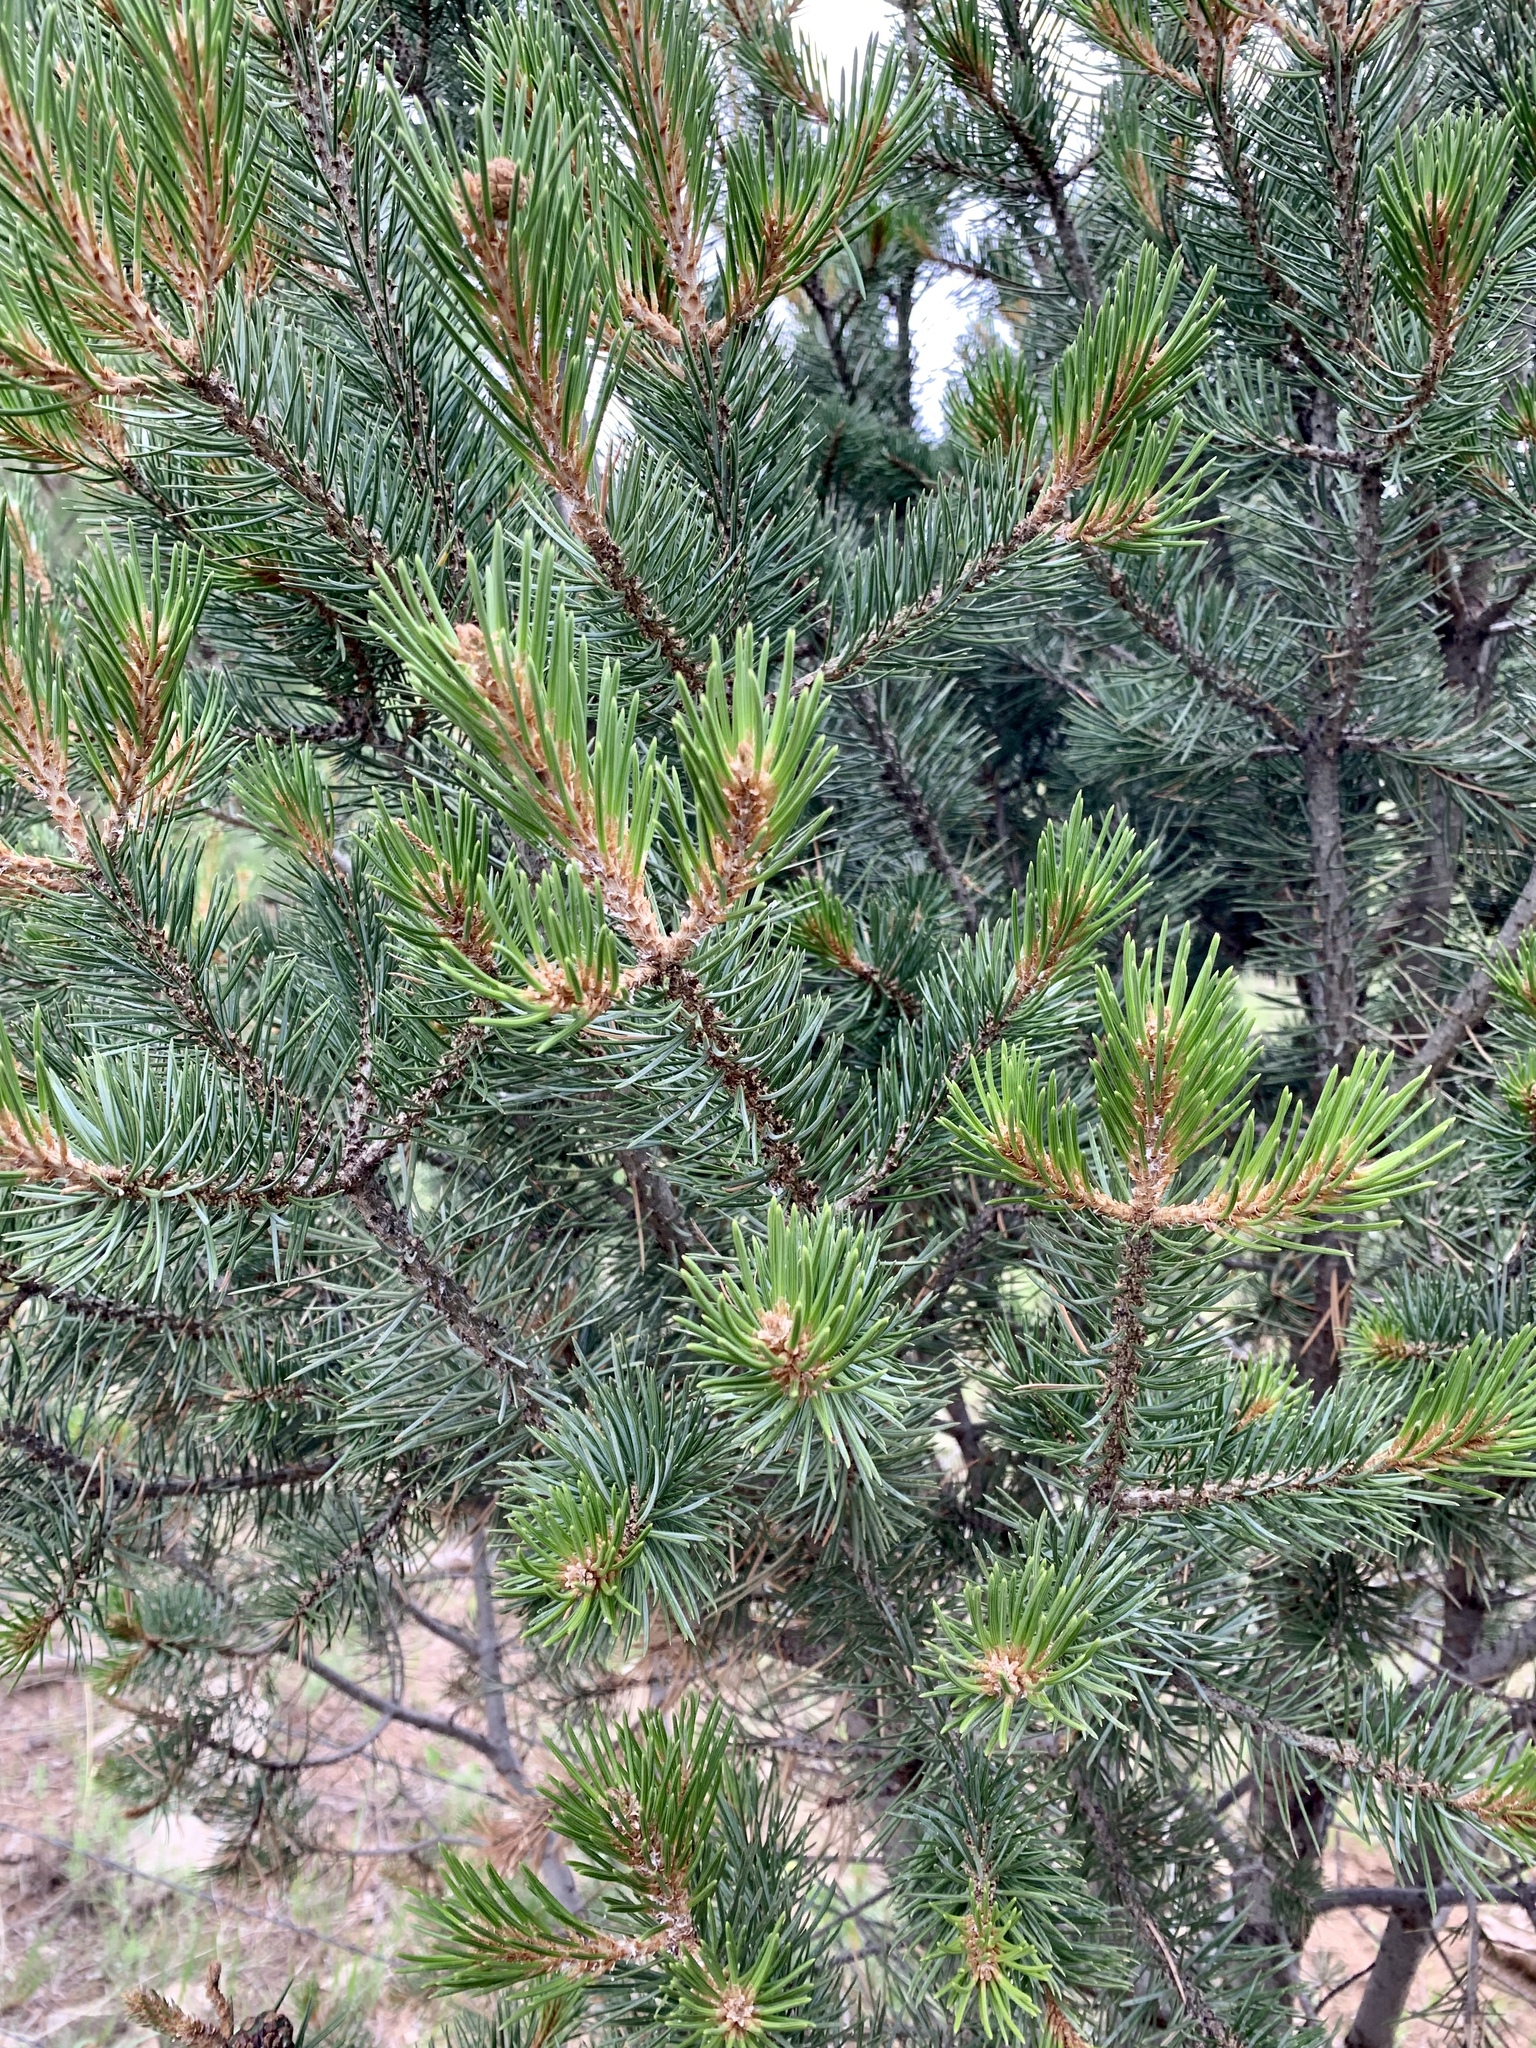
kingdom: Plantae
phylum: Tracheophyta
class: Pinopsida
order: Pinales
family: Pinaceae
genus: Pinus
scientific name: Pinus edulis
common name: Colorado pinyon
